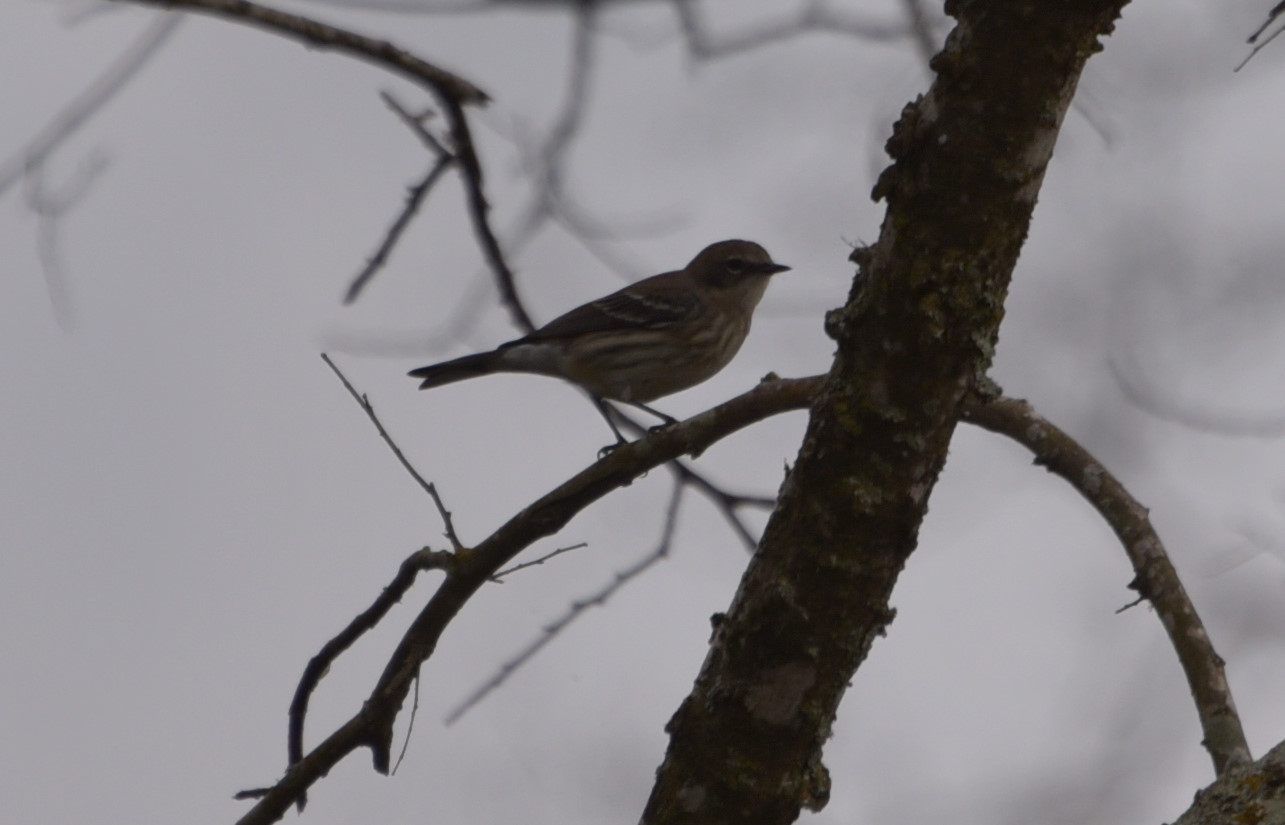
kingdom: Animalia
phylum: Chordata
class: Aves
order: Passeriformes
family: Parulidae
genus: Setophaga
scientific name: Setophaga coronata
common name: Myrtle warbler
